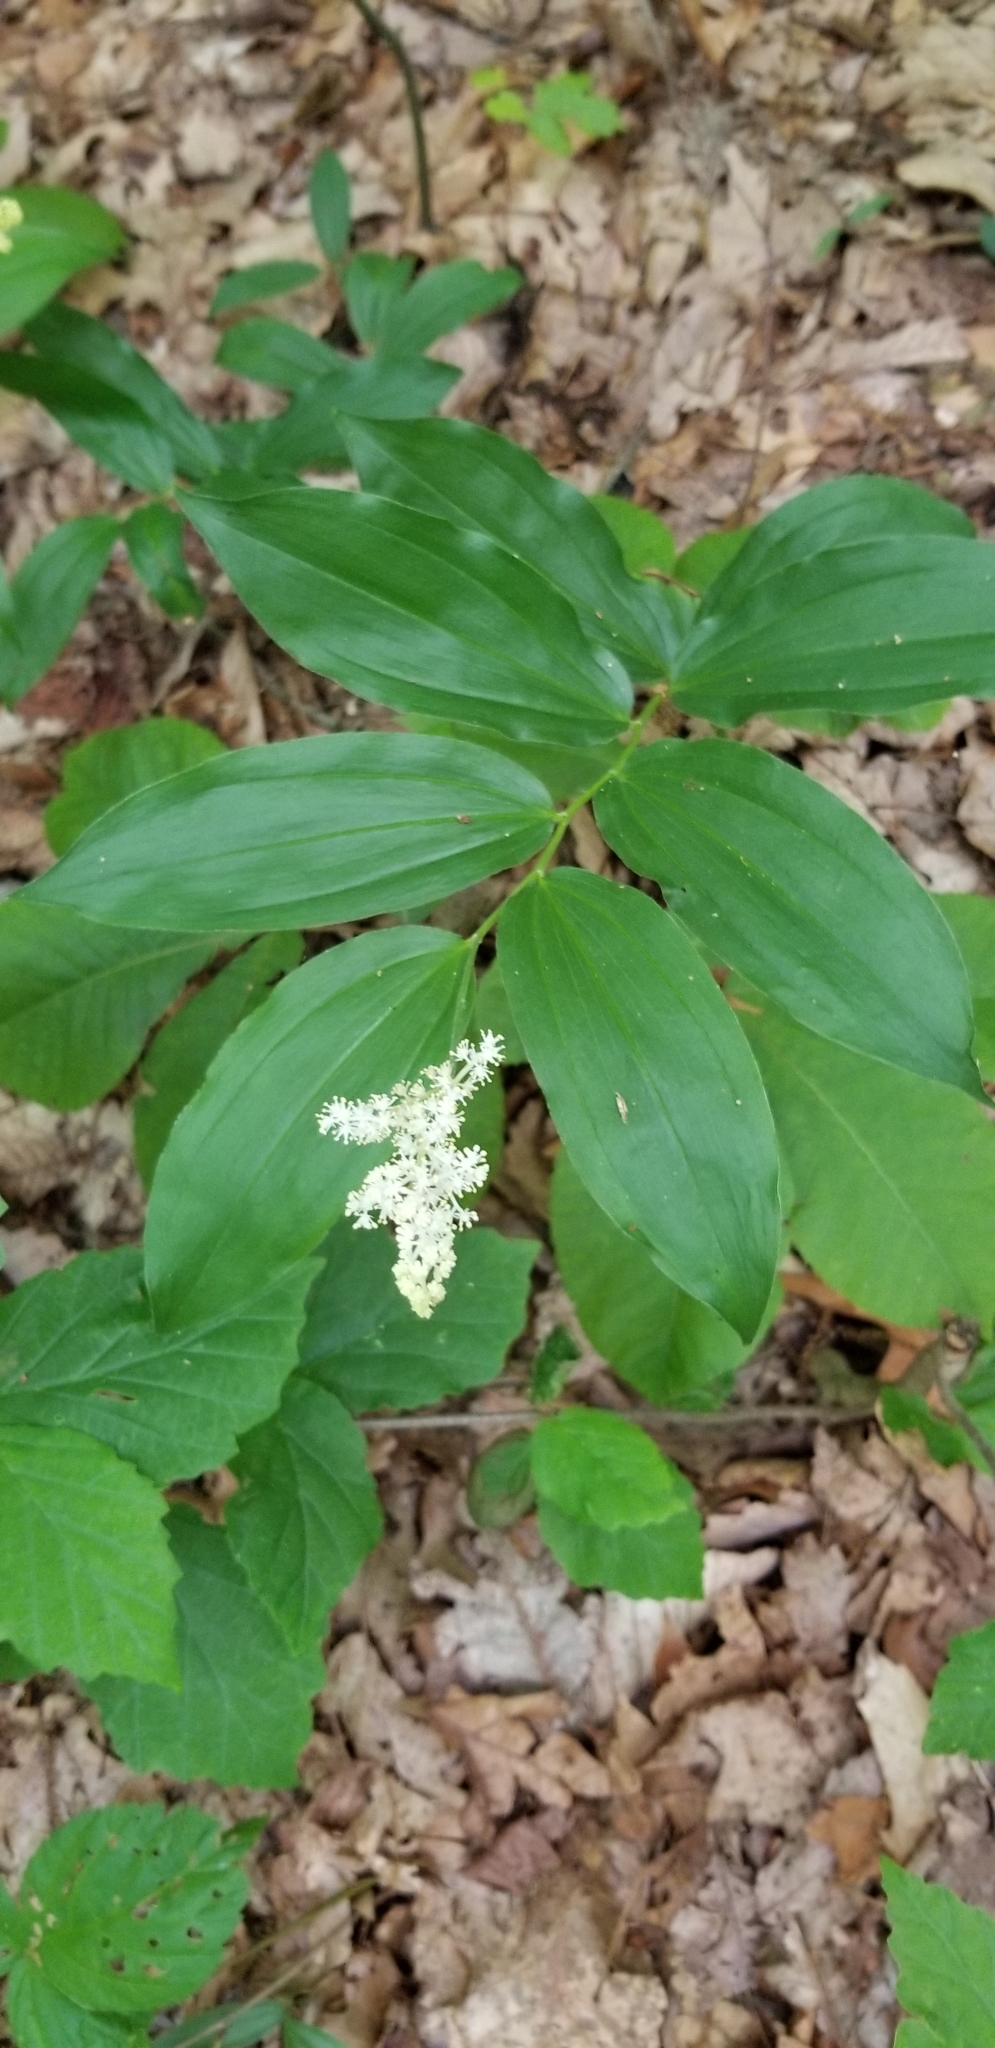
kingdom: Plantae
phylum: Tracheophyta
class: Liliopsida
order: Asparagales
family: Asparagaceae
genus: Maianthemum
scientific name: Maianthemum racemosum
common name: False spikenard
